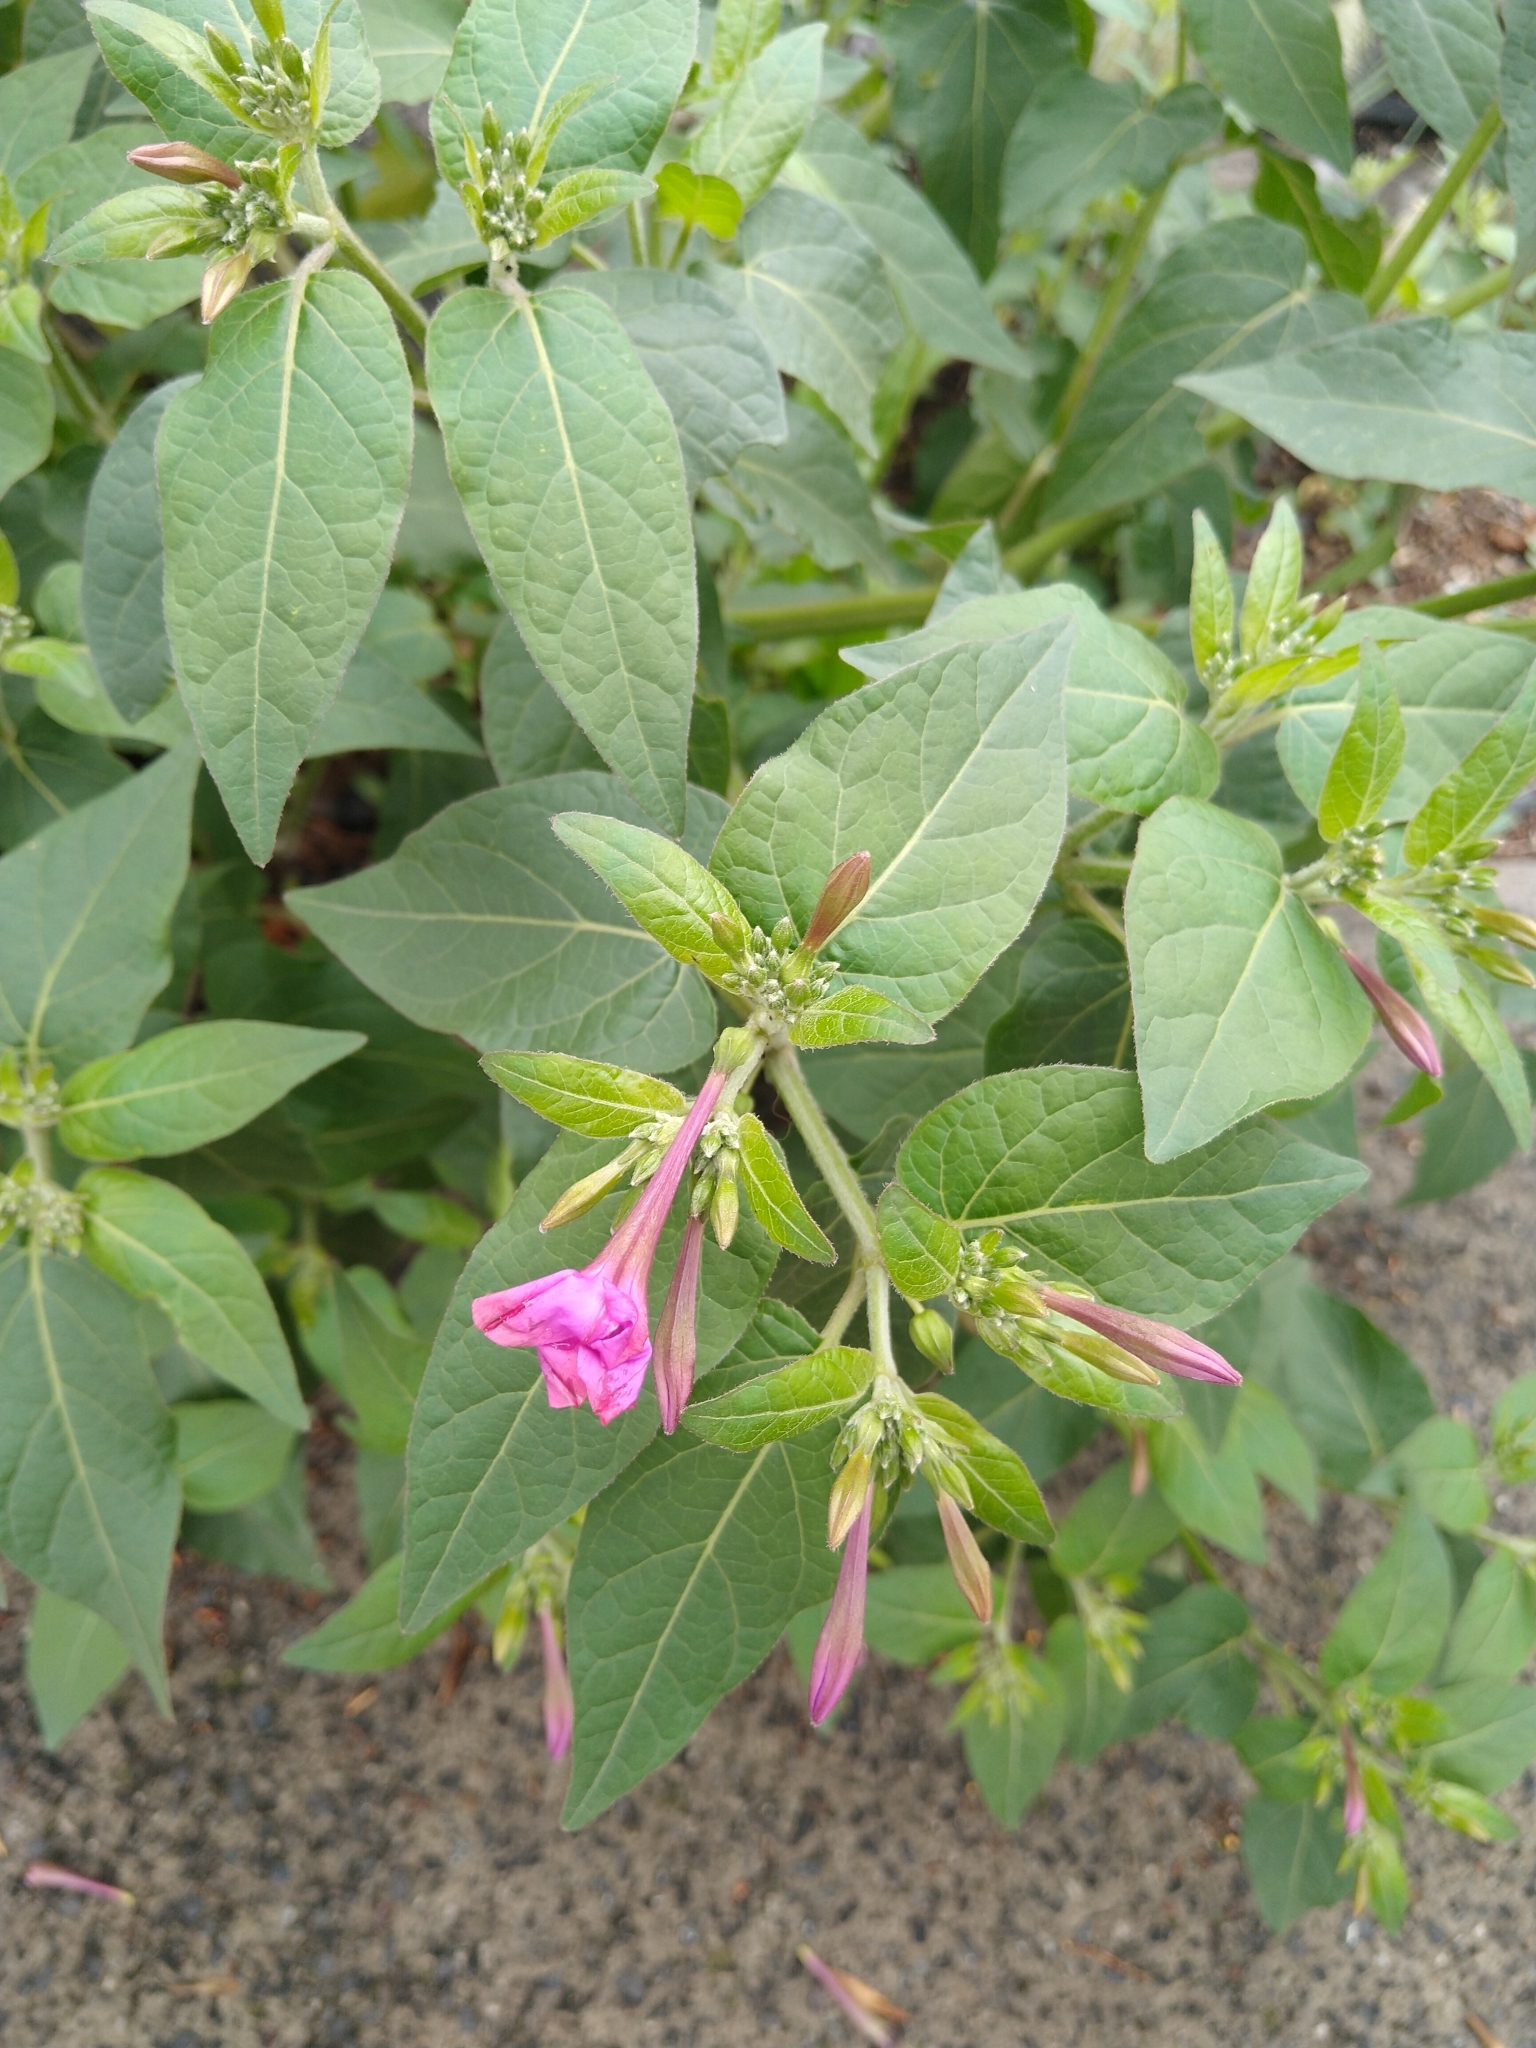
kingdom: Plantae
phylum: Tracheophyta
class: Magnoliopsida
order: Caryophyllales
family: Nyctaginaceae
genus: Mirabilis
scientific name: Mirabilis jalapa
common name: Marvel-of-peru
